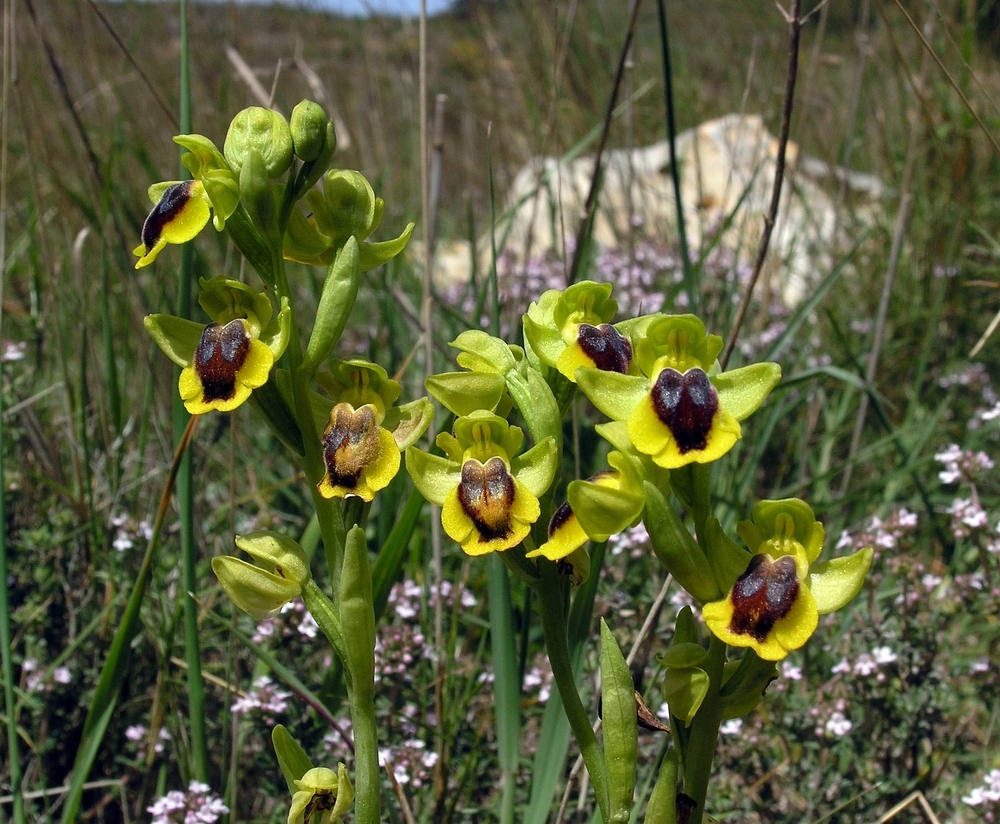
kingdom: Plantae
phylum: Tracheophyta
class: Liliopsida
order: Asparagales
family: Orchidaceae
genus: Ophrys
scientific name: Ophrys lutea
